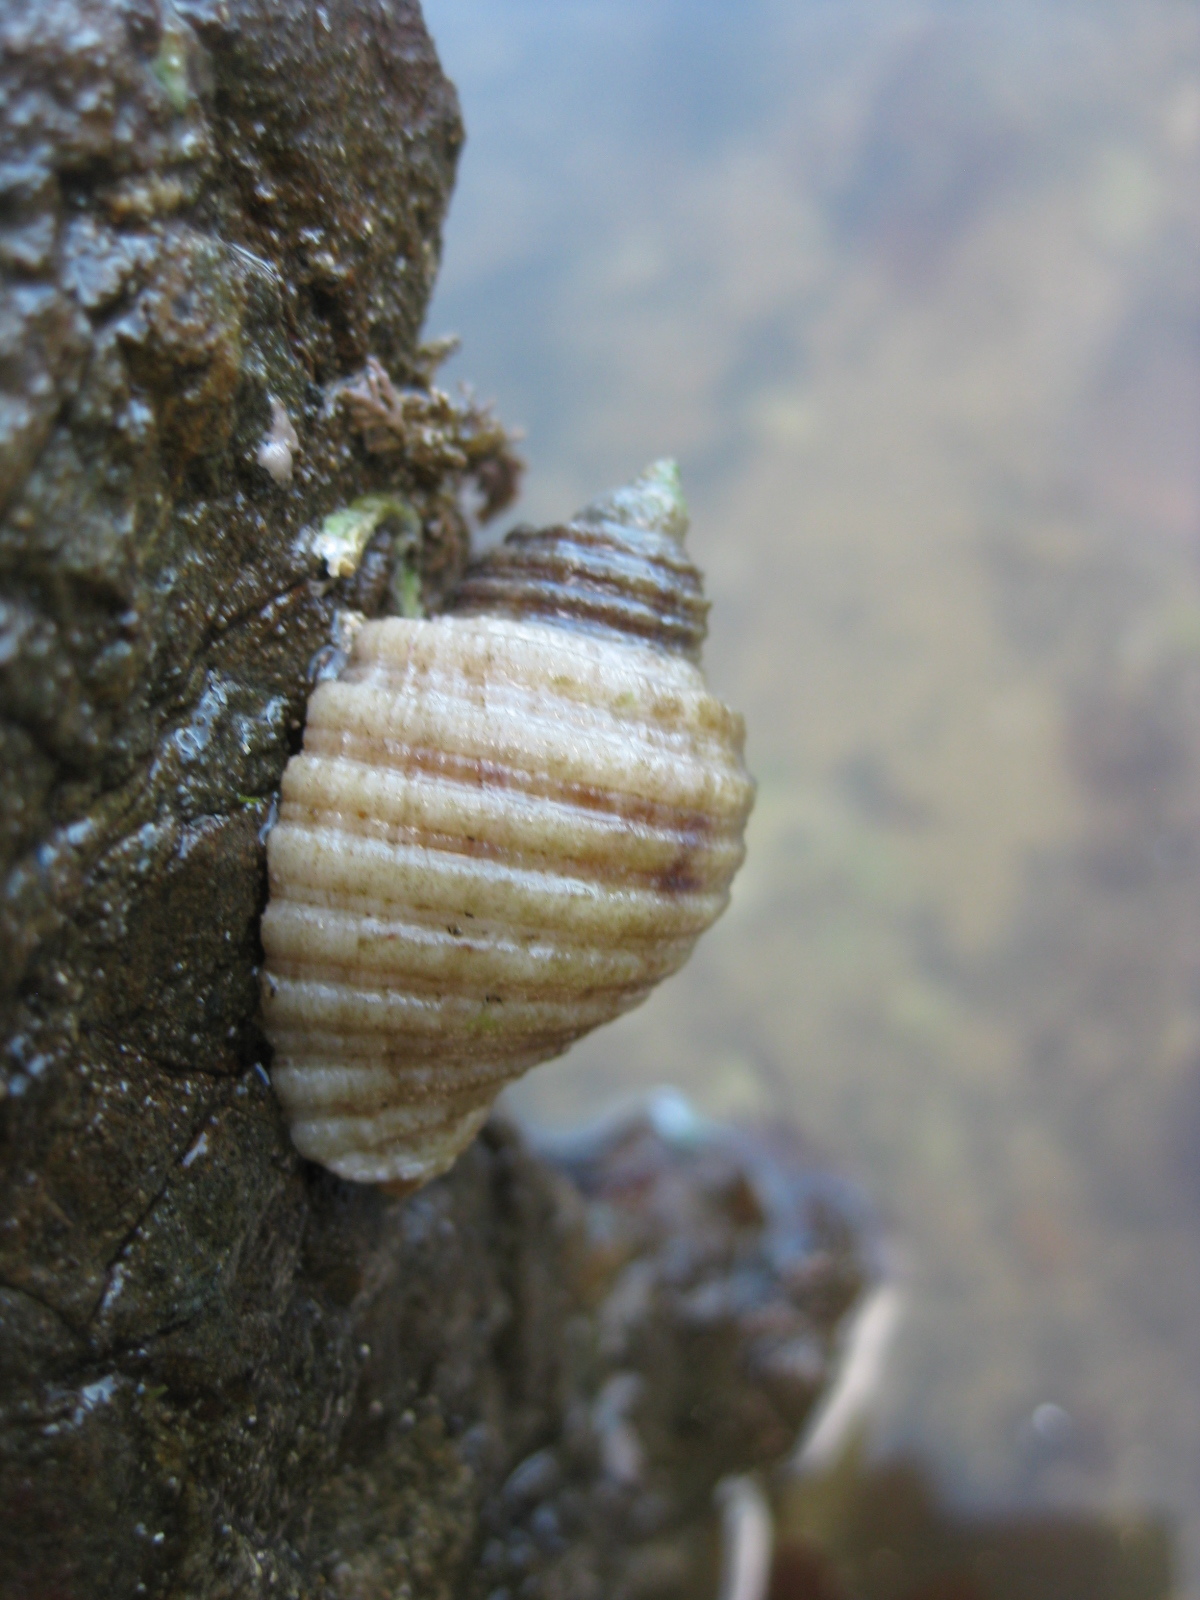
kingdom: Animalia
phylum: Mollusca
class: Gastropoda
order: Neogastropoda
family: Muricidae
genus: Dicathais
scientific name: Dicathais orbita
